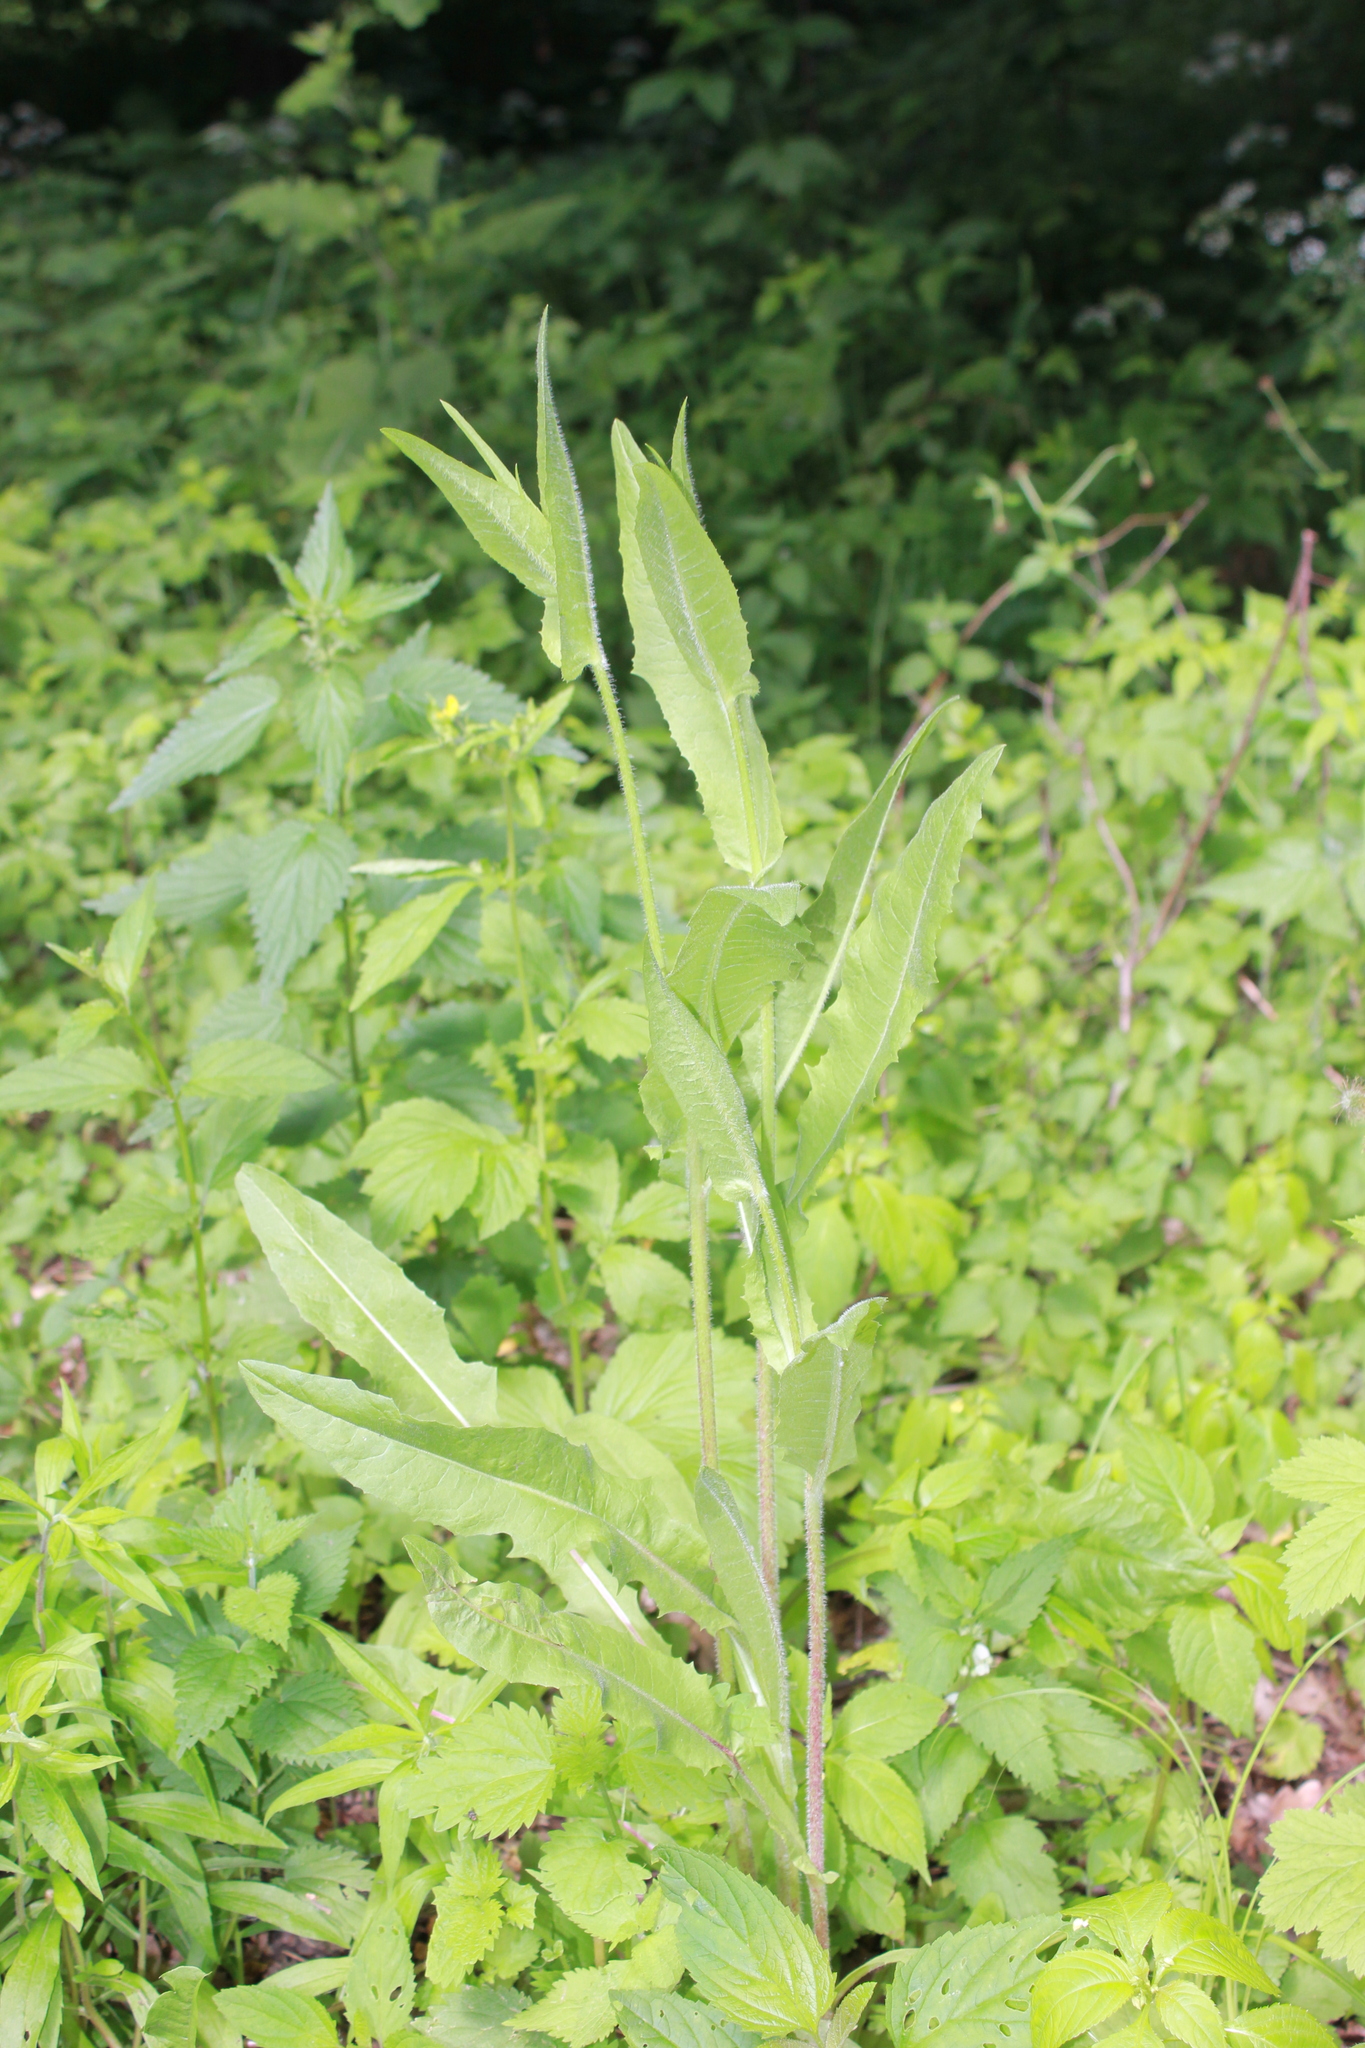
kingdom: Plantae
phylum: Tracheophyta
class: Magnoliopsida
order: Asterales
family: Asteraceae
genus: Cichorium
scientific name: Cichorium intybus
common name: Chicory
